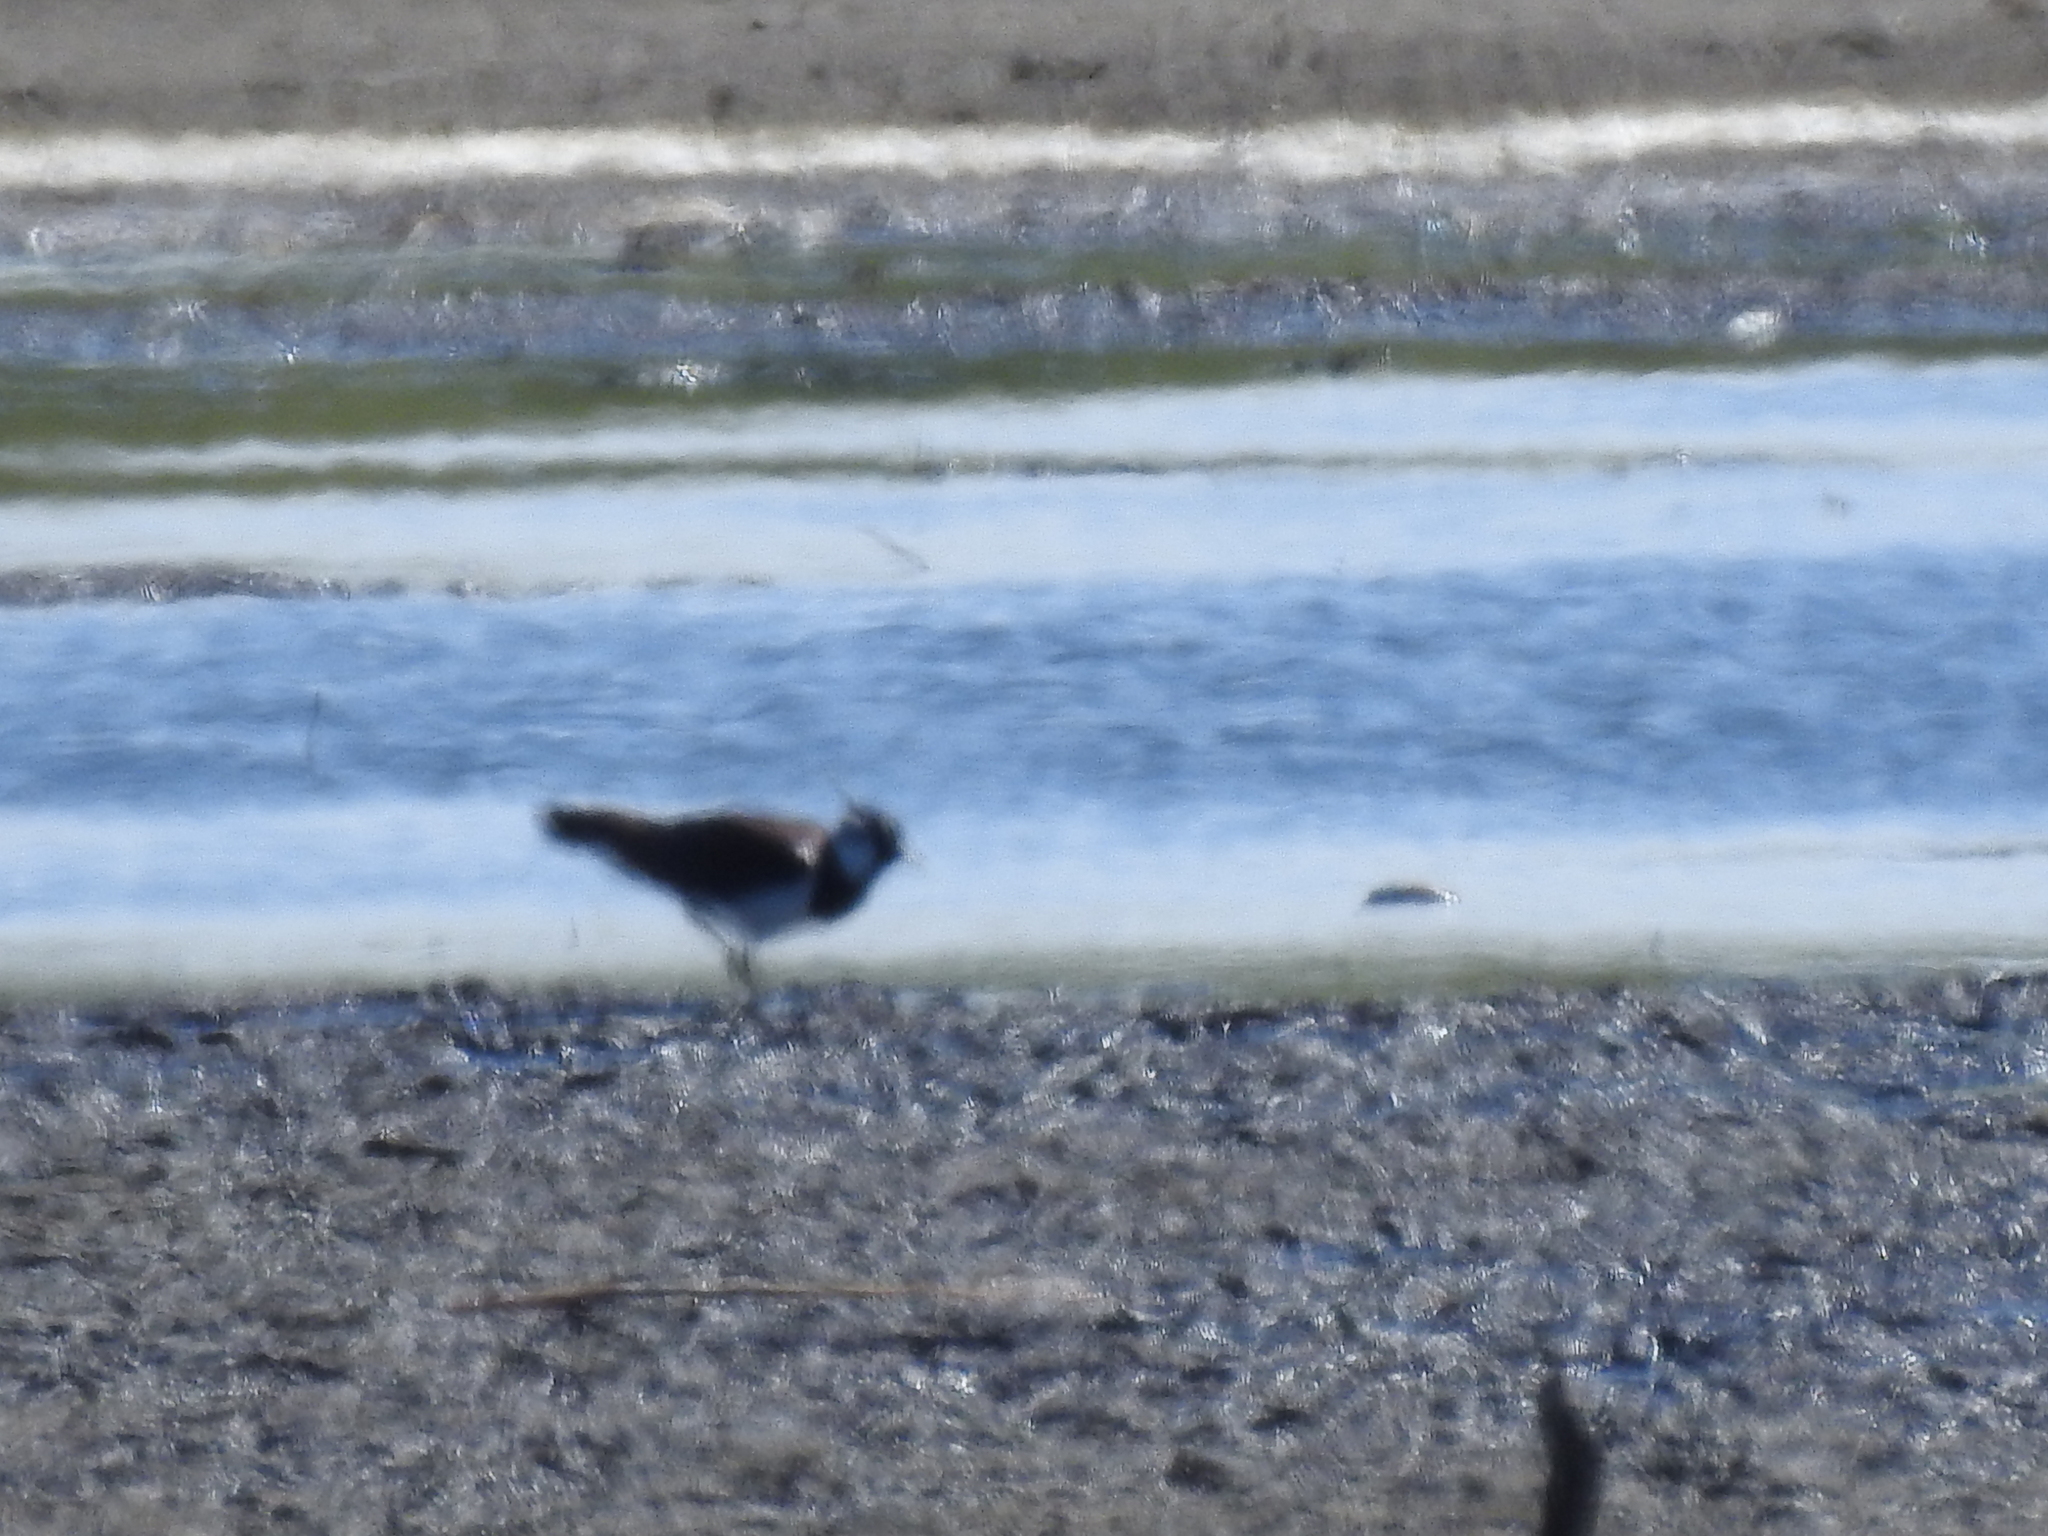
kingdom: Animalia
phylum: Chordata
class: Aves
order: Charadriiformes
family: Charadriidae
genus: Vanellus
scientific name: Vanellus vanellus
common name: Northern lapwing
